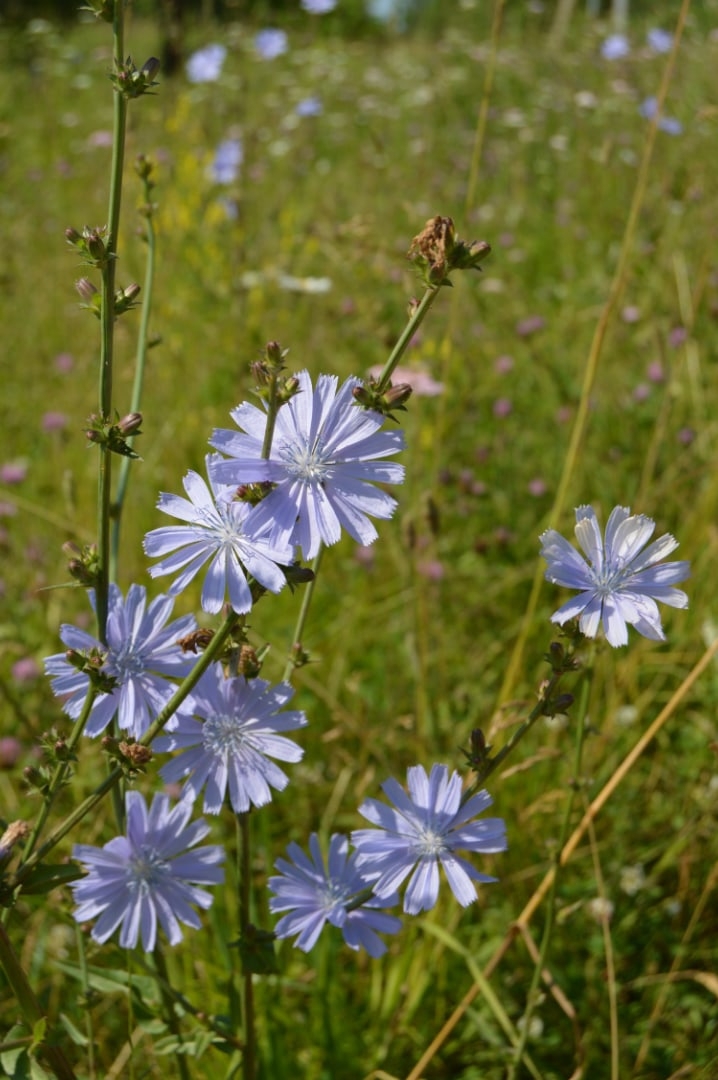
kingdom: Plantae
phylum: Tracheophyta
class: Magnoliopsida
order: Asterales
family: Asteraceae
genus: Cichorium
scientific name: Cichorium intybus
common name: Chicory
